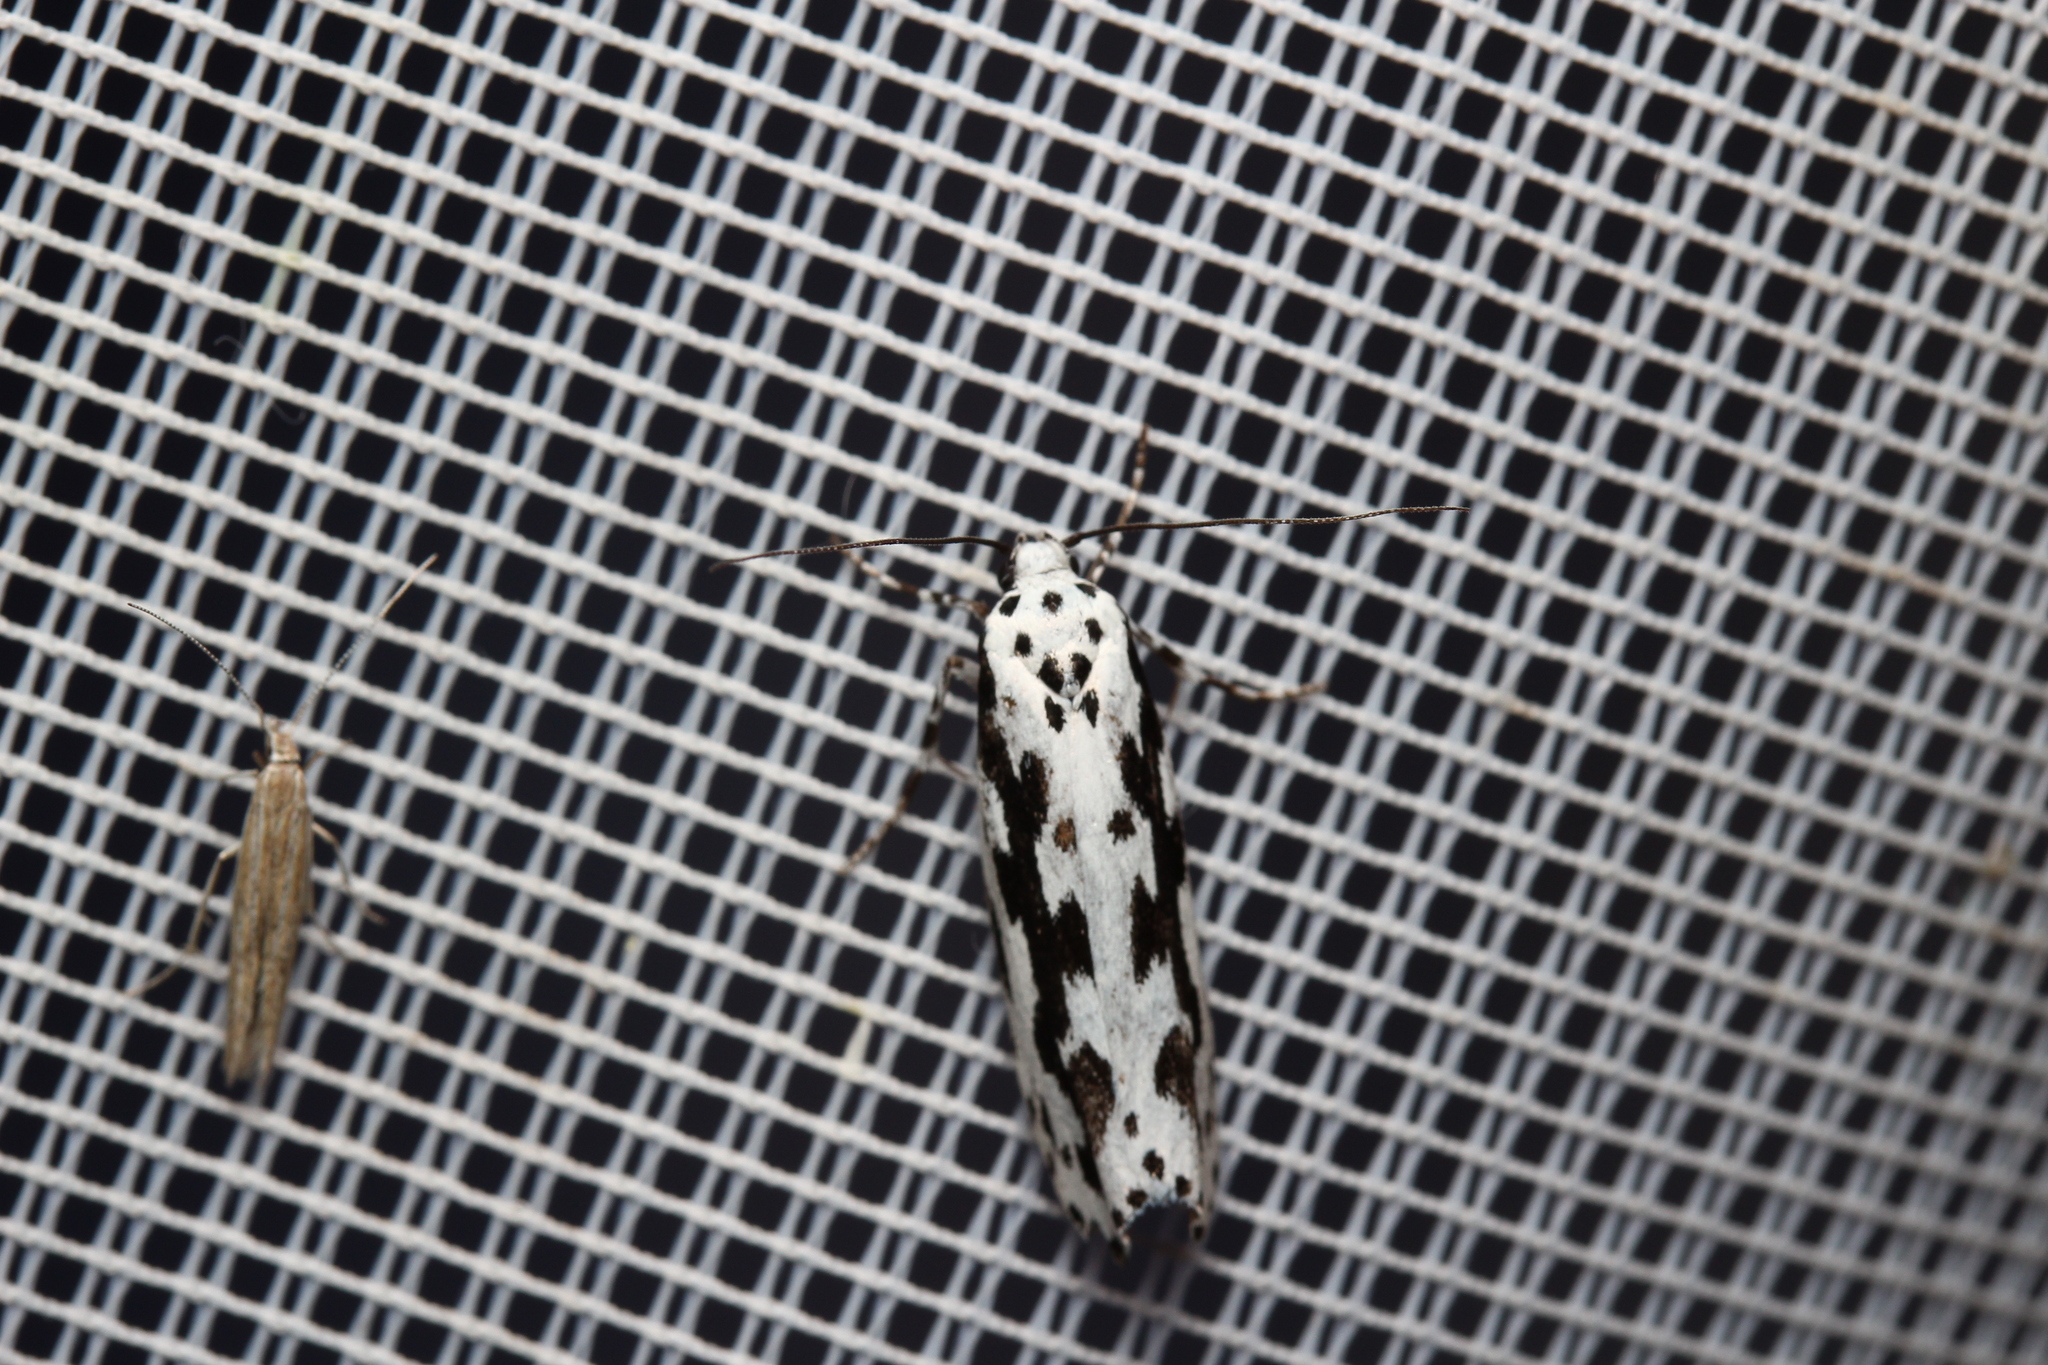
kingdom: Animalia
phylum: Arthropoda
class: Insecta
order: Lepidoptera
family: Ethmiidae
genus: Ethmia
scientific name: Ethmia pusiella
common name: Striped ermel
